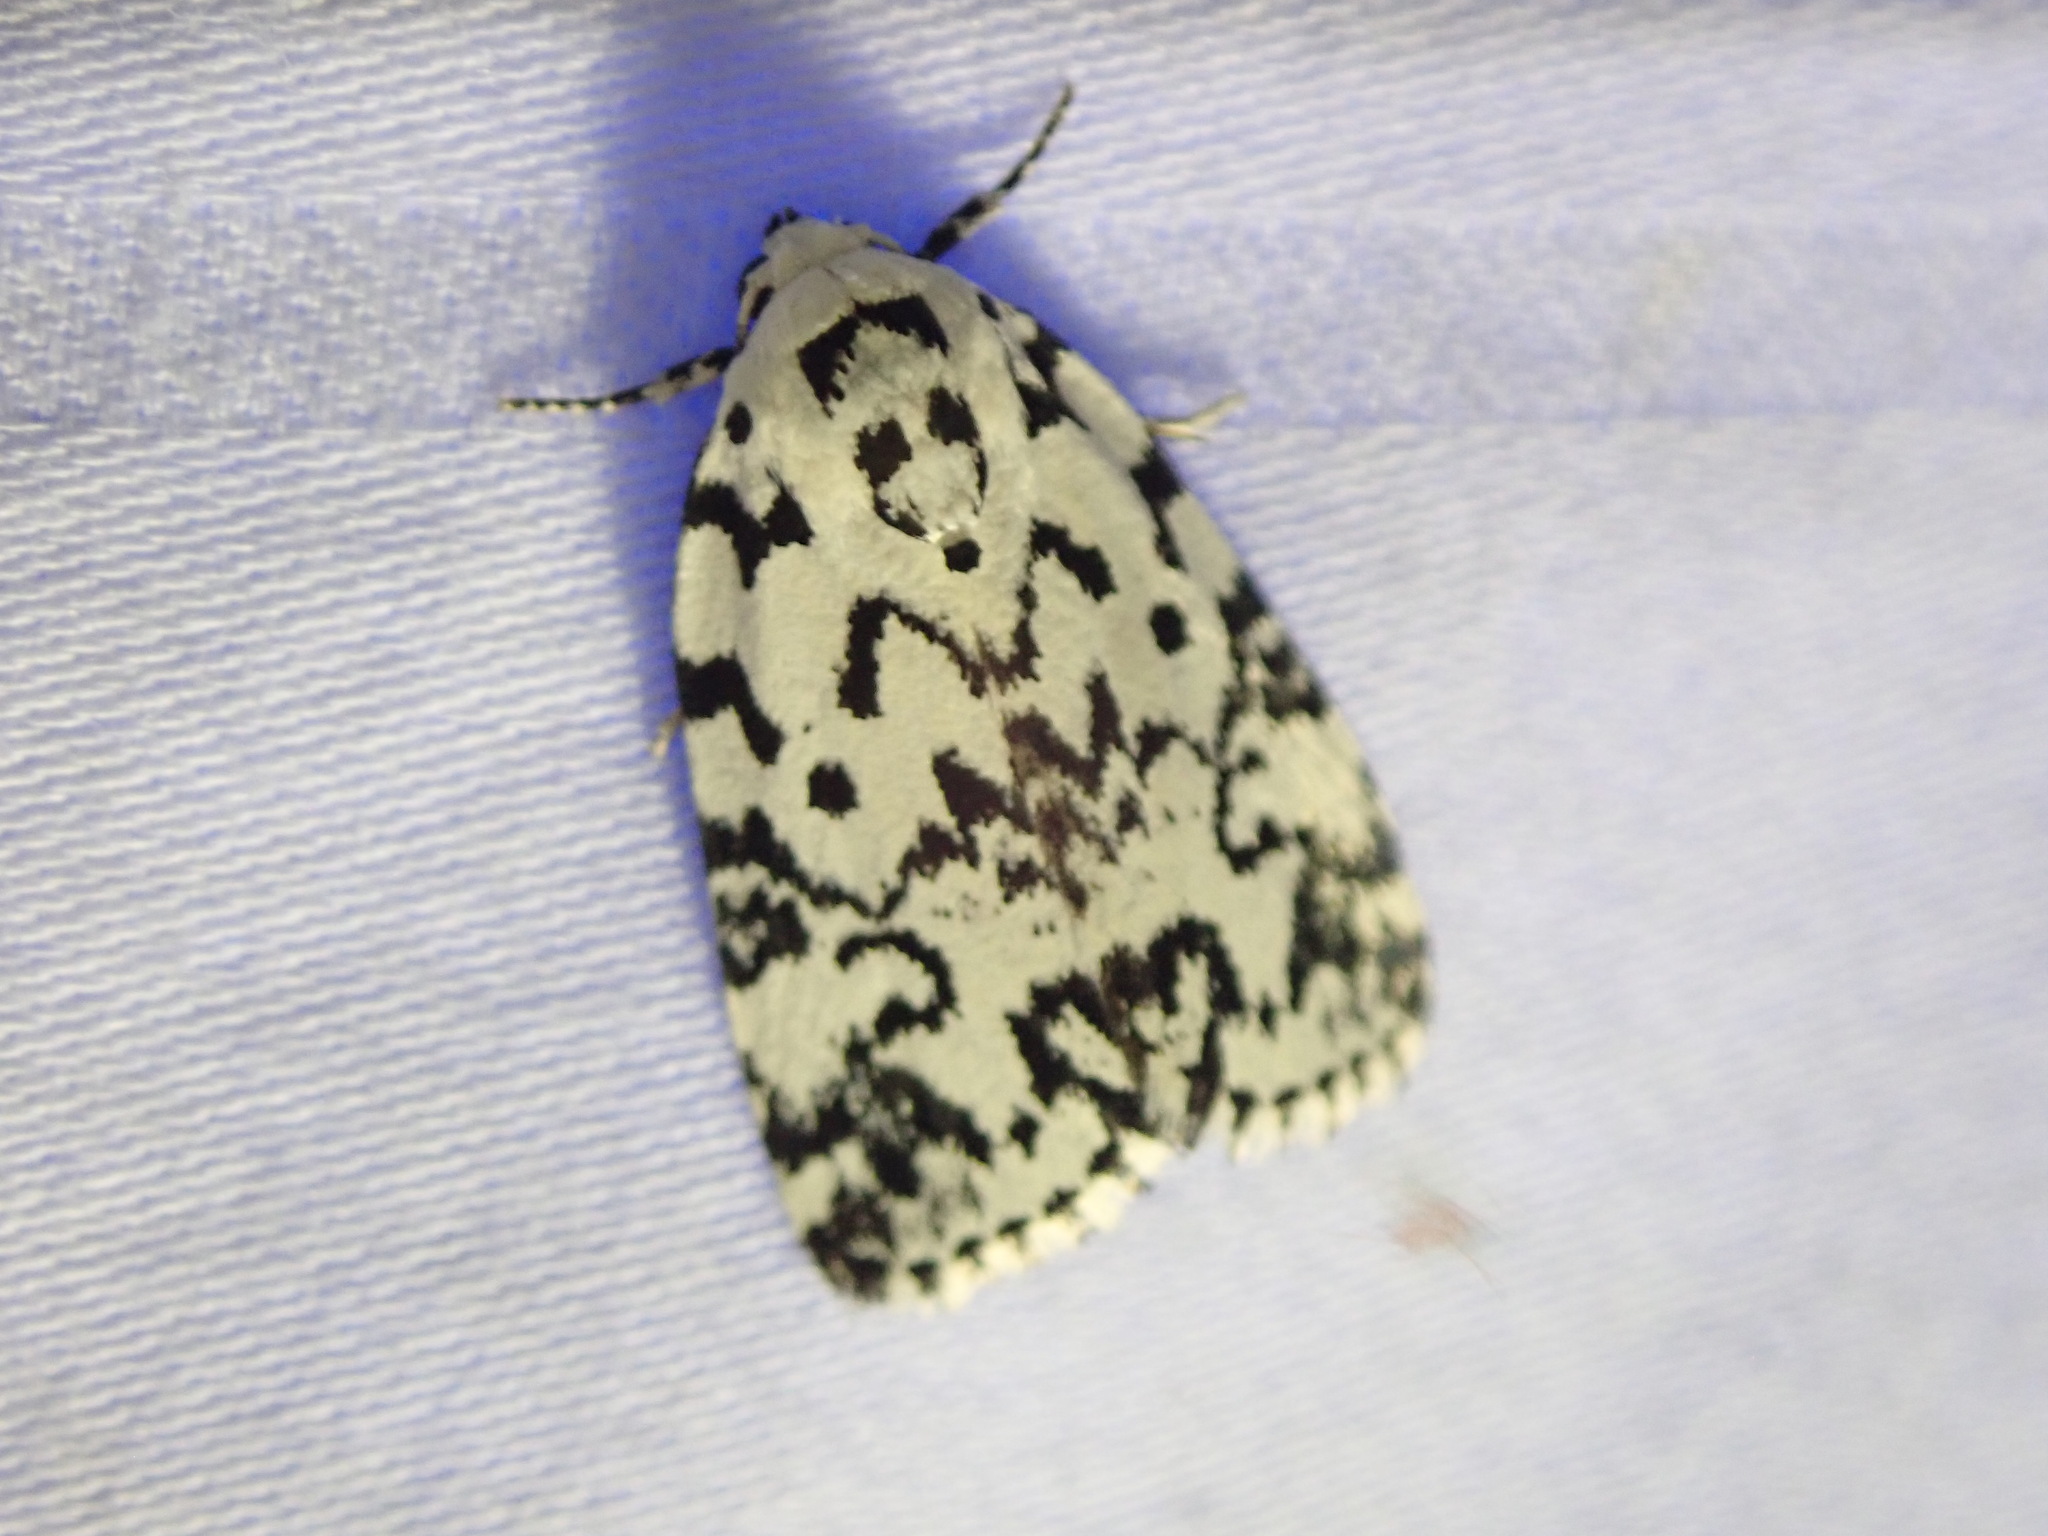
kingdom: Animalia
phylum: Arthropoda
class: Insecta
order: Lepidoptera
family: Noctuidae
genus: Polygrammate
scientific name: Polygrammate hebraeicum
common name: Hebrew moth
